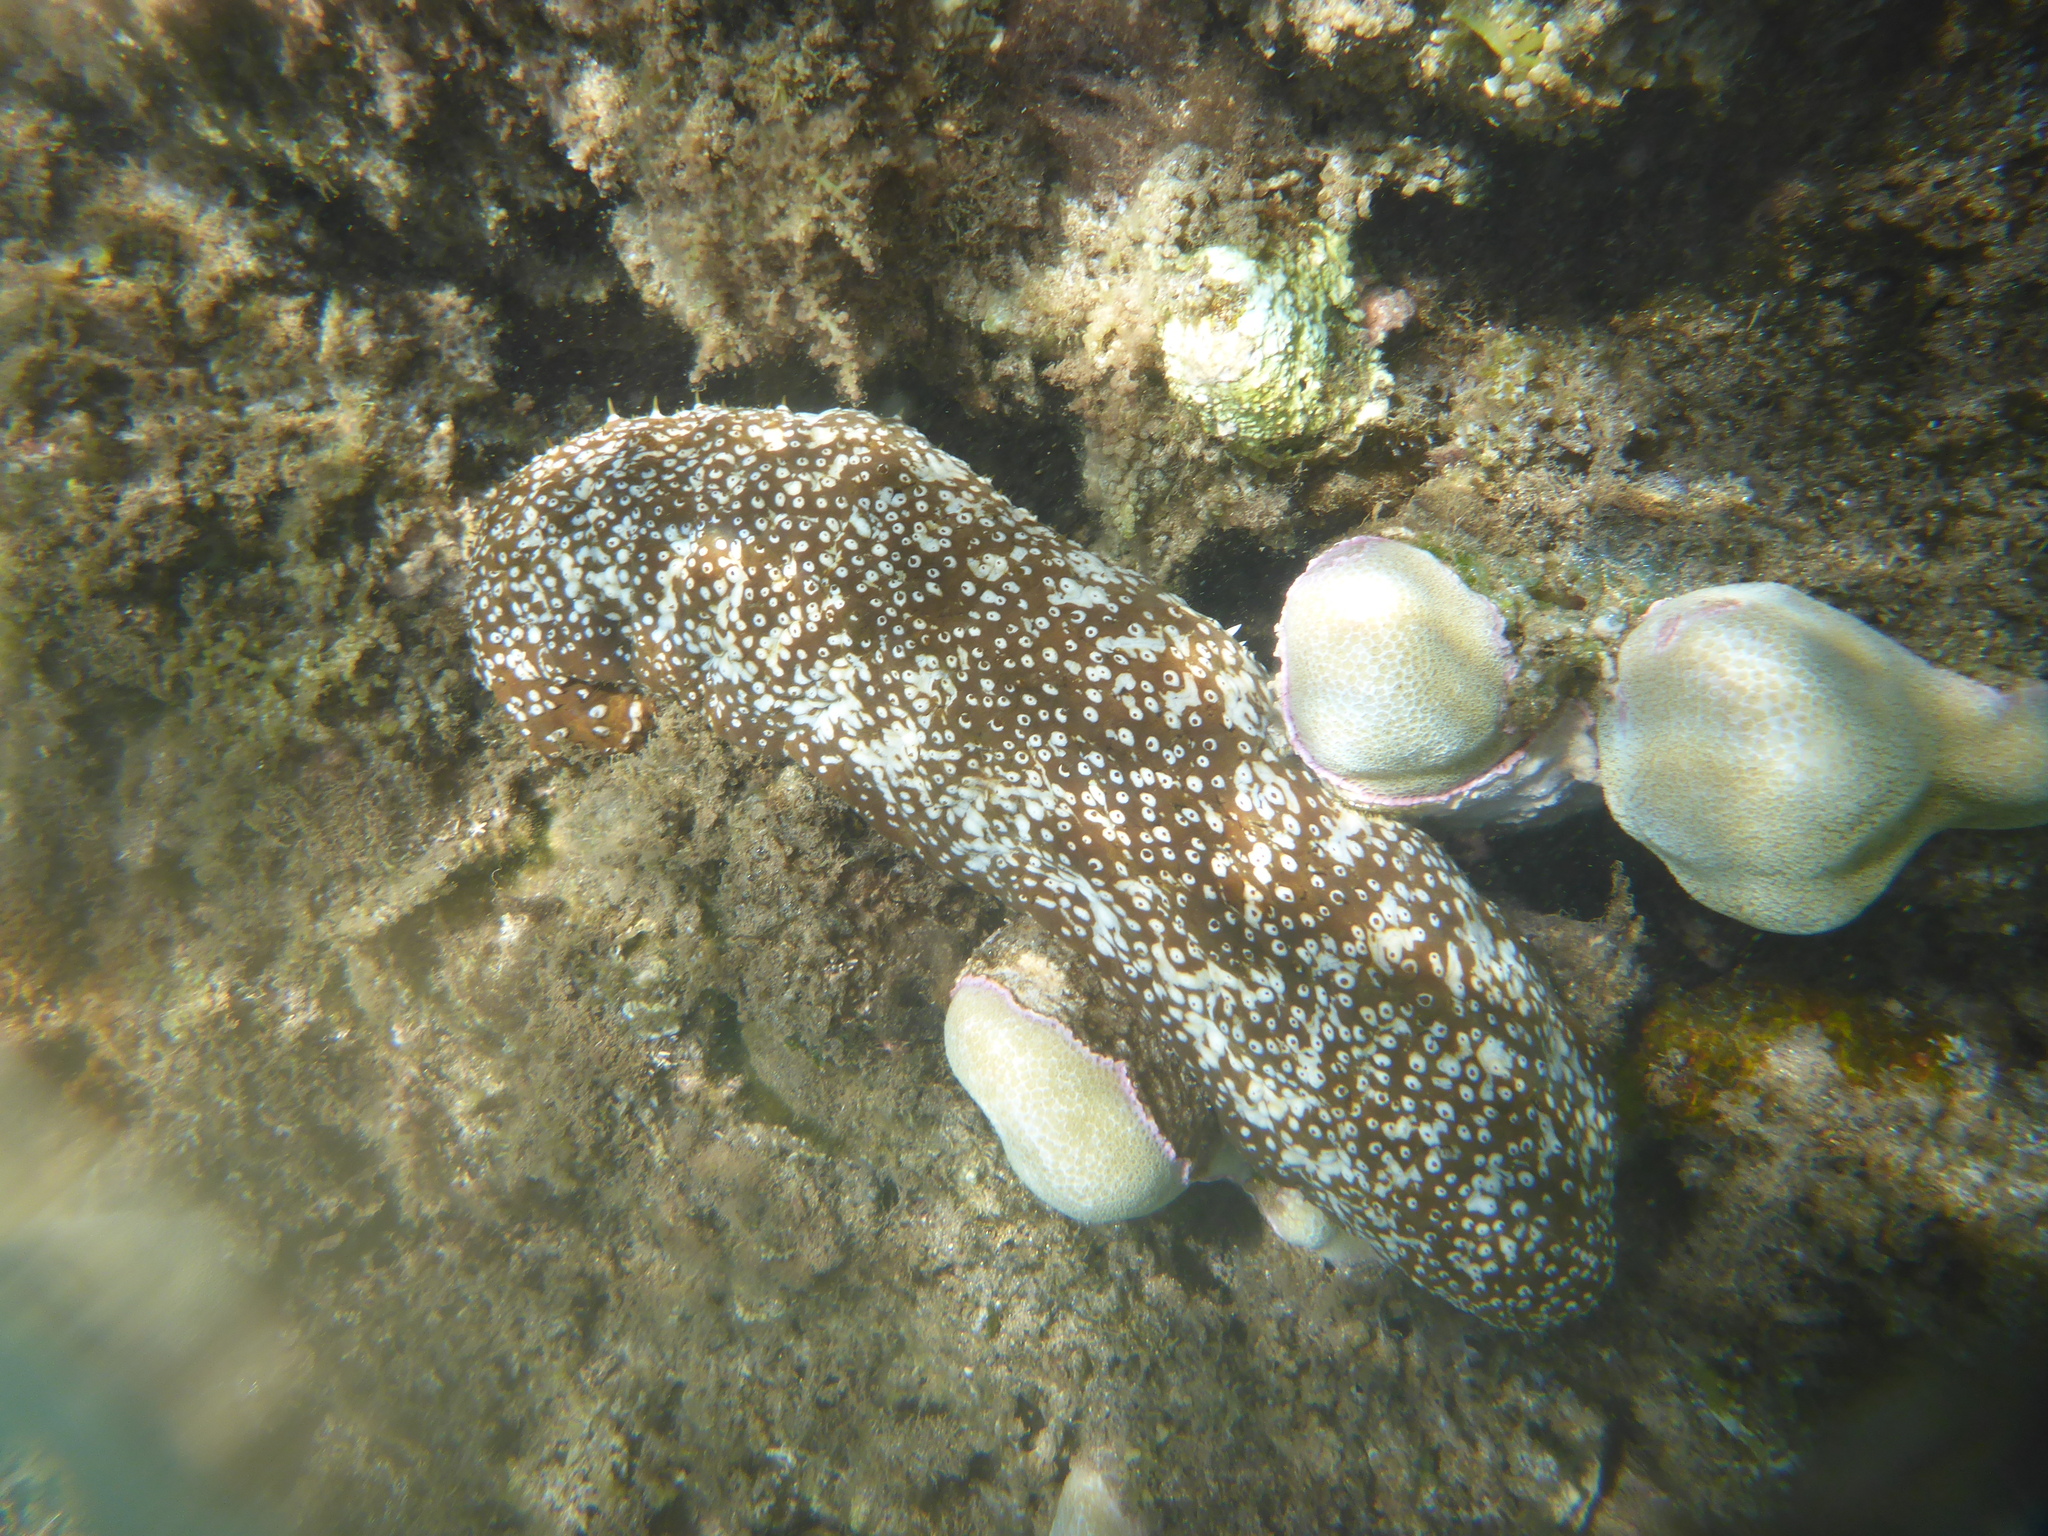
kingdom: Animalia
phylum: Echinodermata
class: Holothuroidea
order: Holothuriida
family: Holothuriidae
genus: Actinopyga
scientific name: Actinopyga varians
